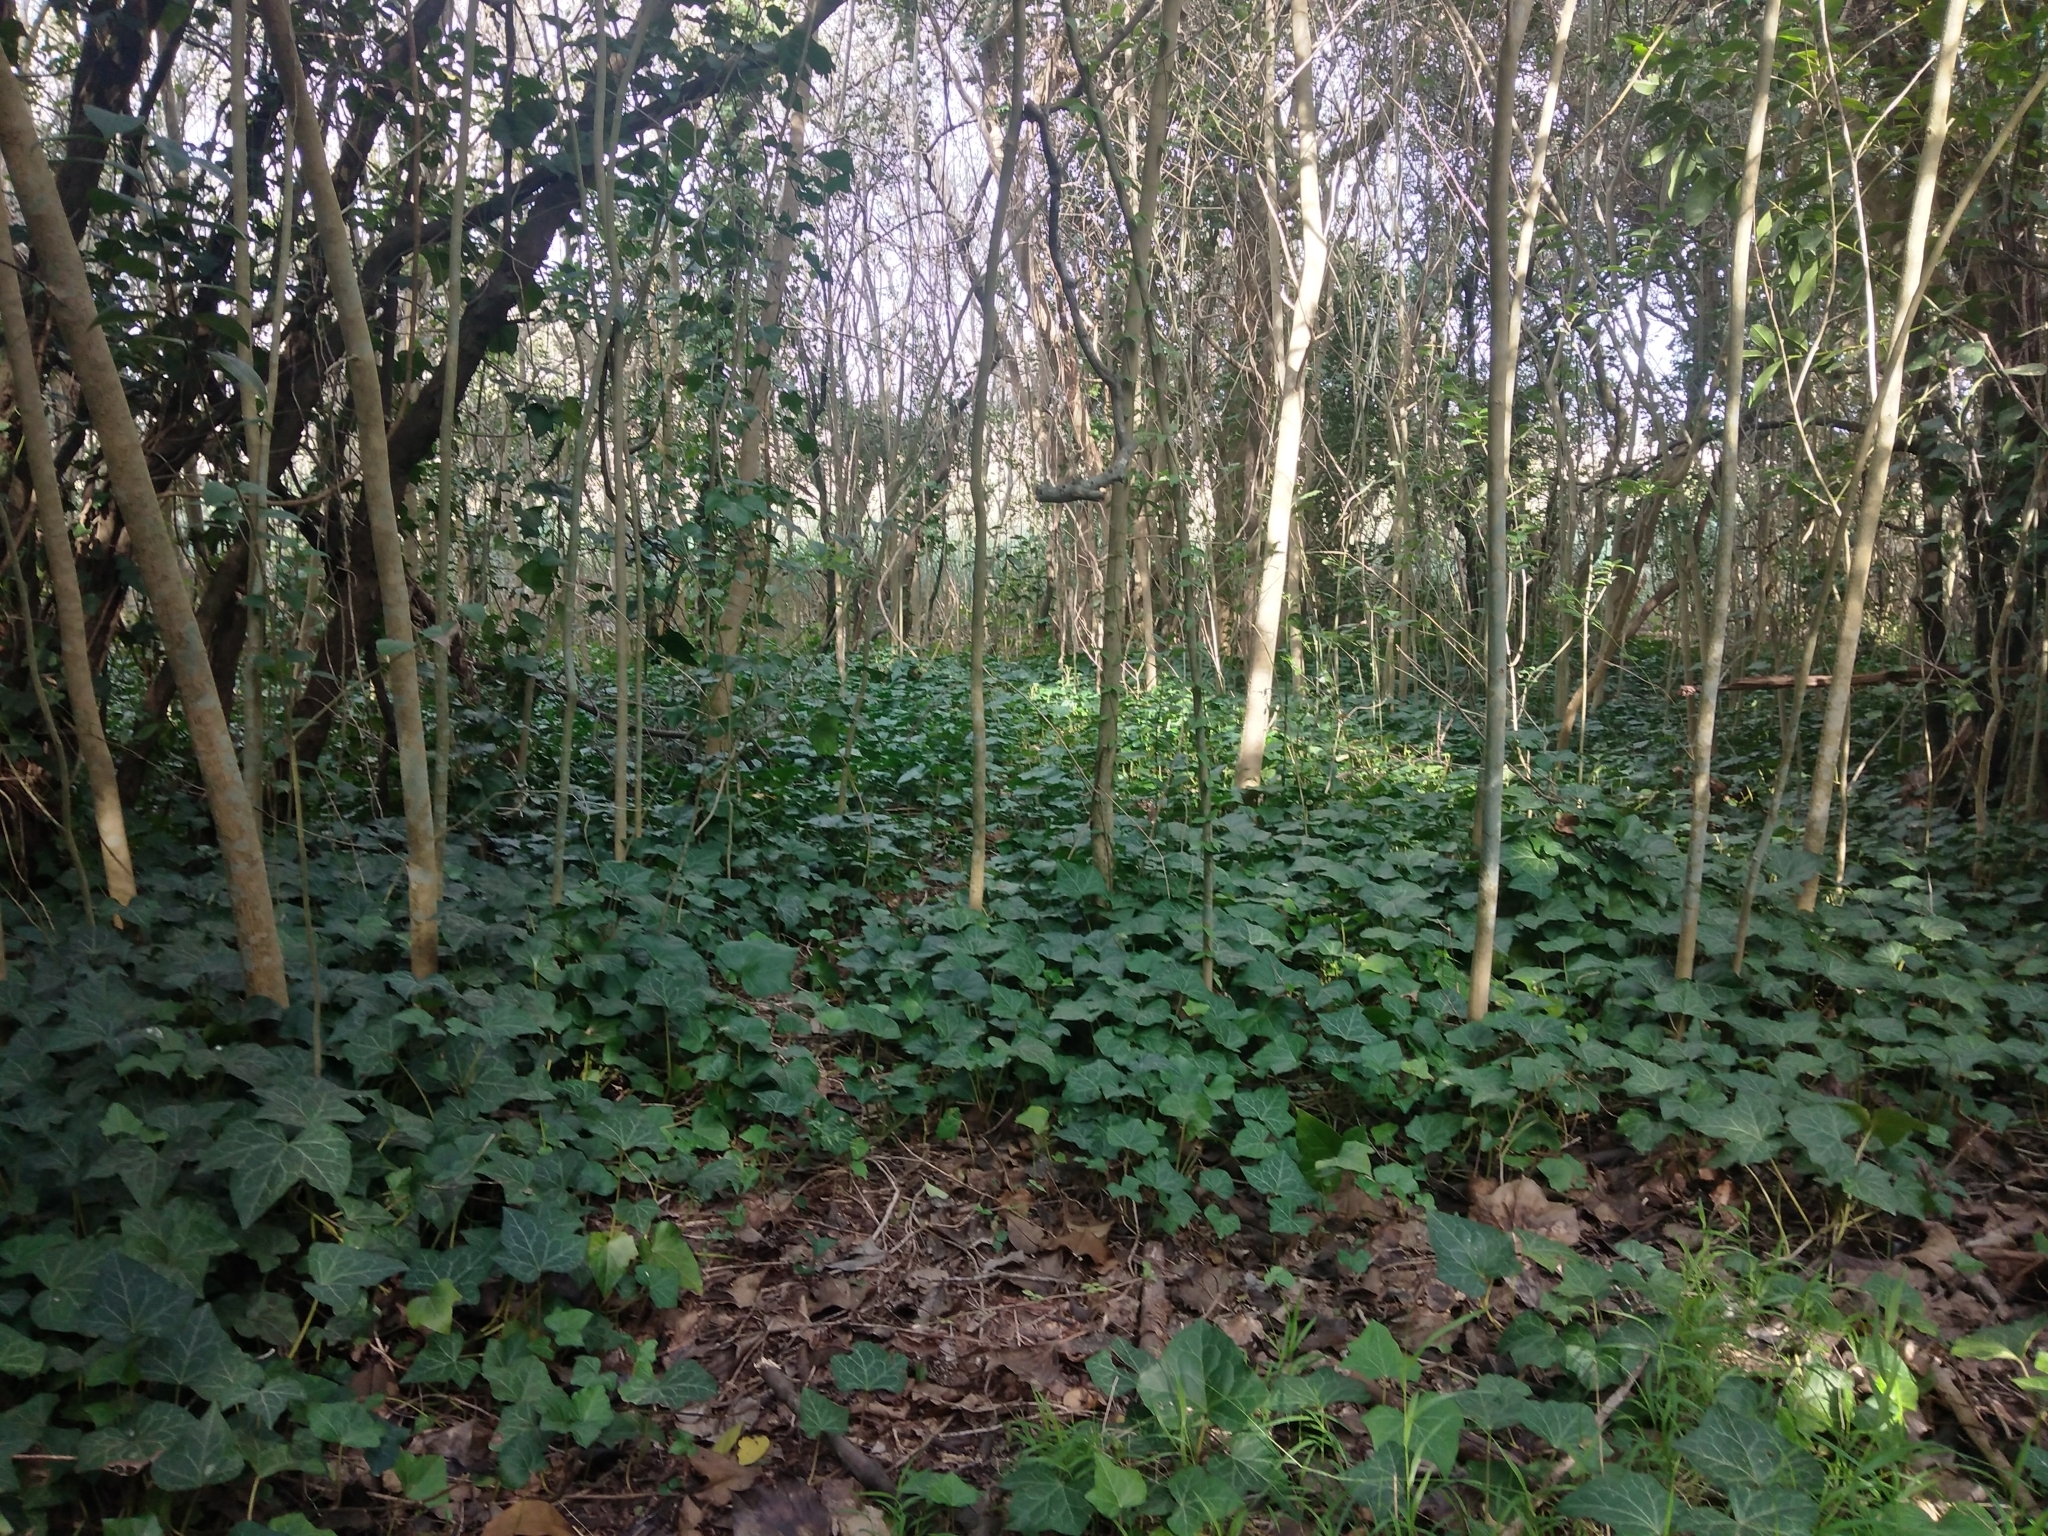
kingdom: Plantae
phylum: Tracheophyta
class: Magnoliopsida
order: Apiales
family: Araliaceae
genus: Hedera
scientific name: Hedera helix
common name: Ivy
